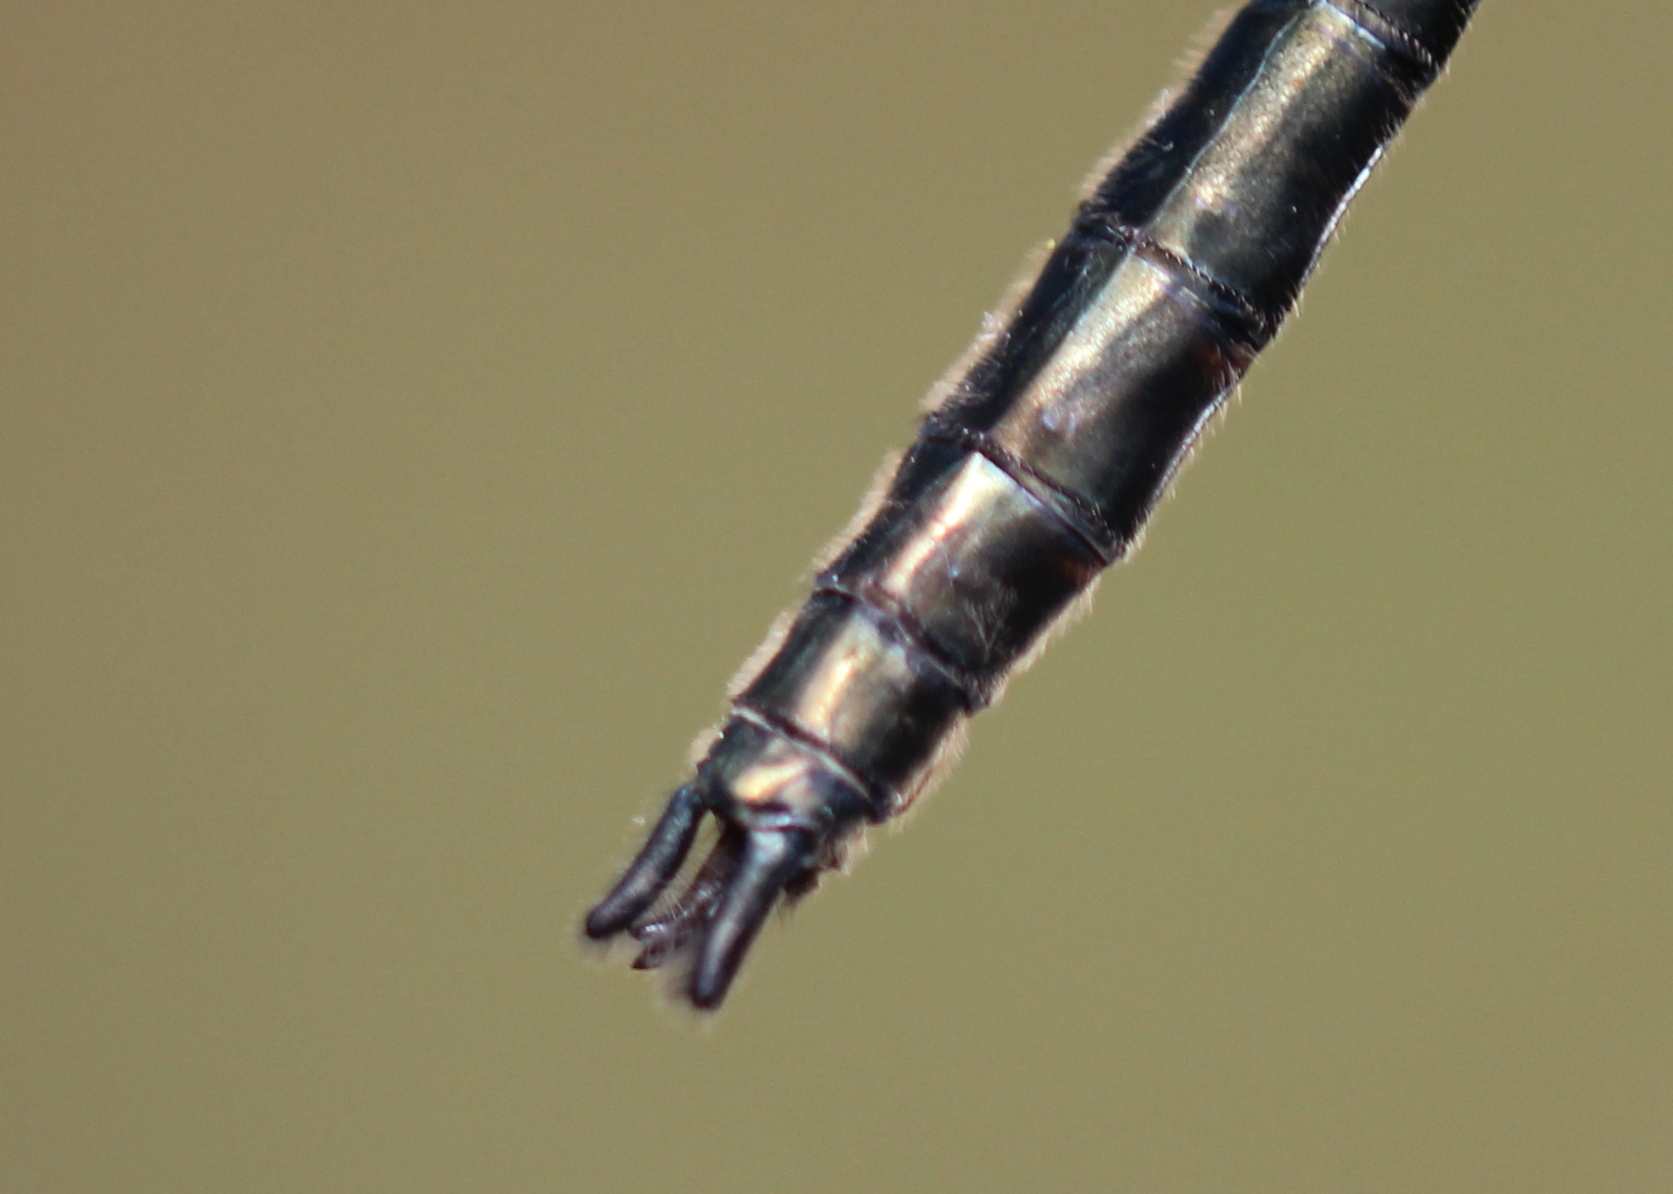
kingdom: Animalia
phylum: Arthropoda
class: Insecta
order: Odonata
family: Corduliidae
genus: Cordulia
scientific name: Cordulia shurtleffii
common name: American emerald
